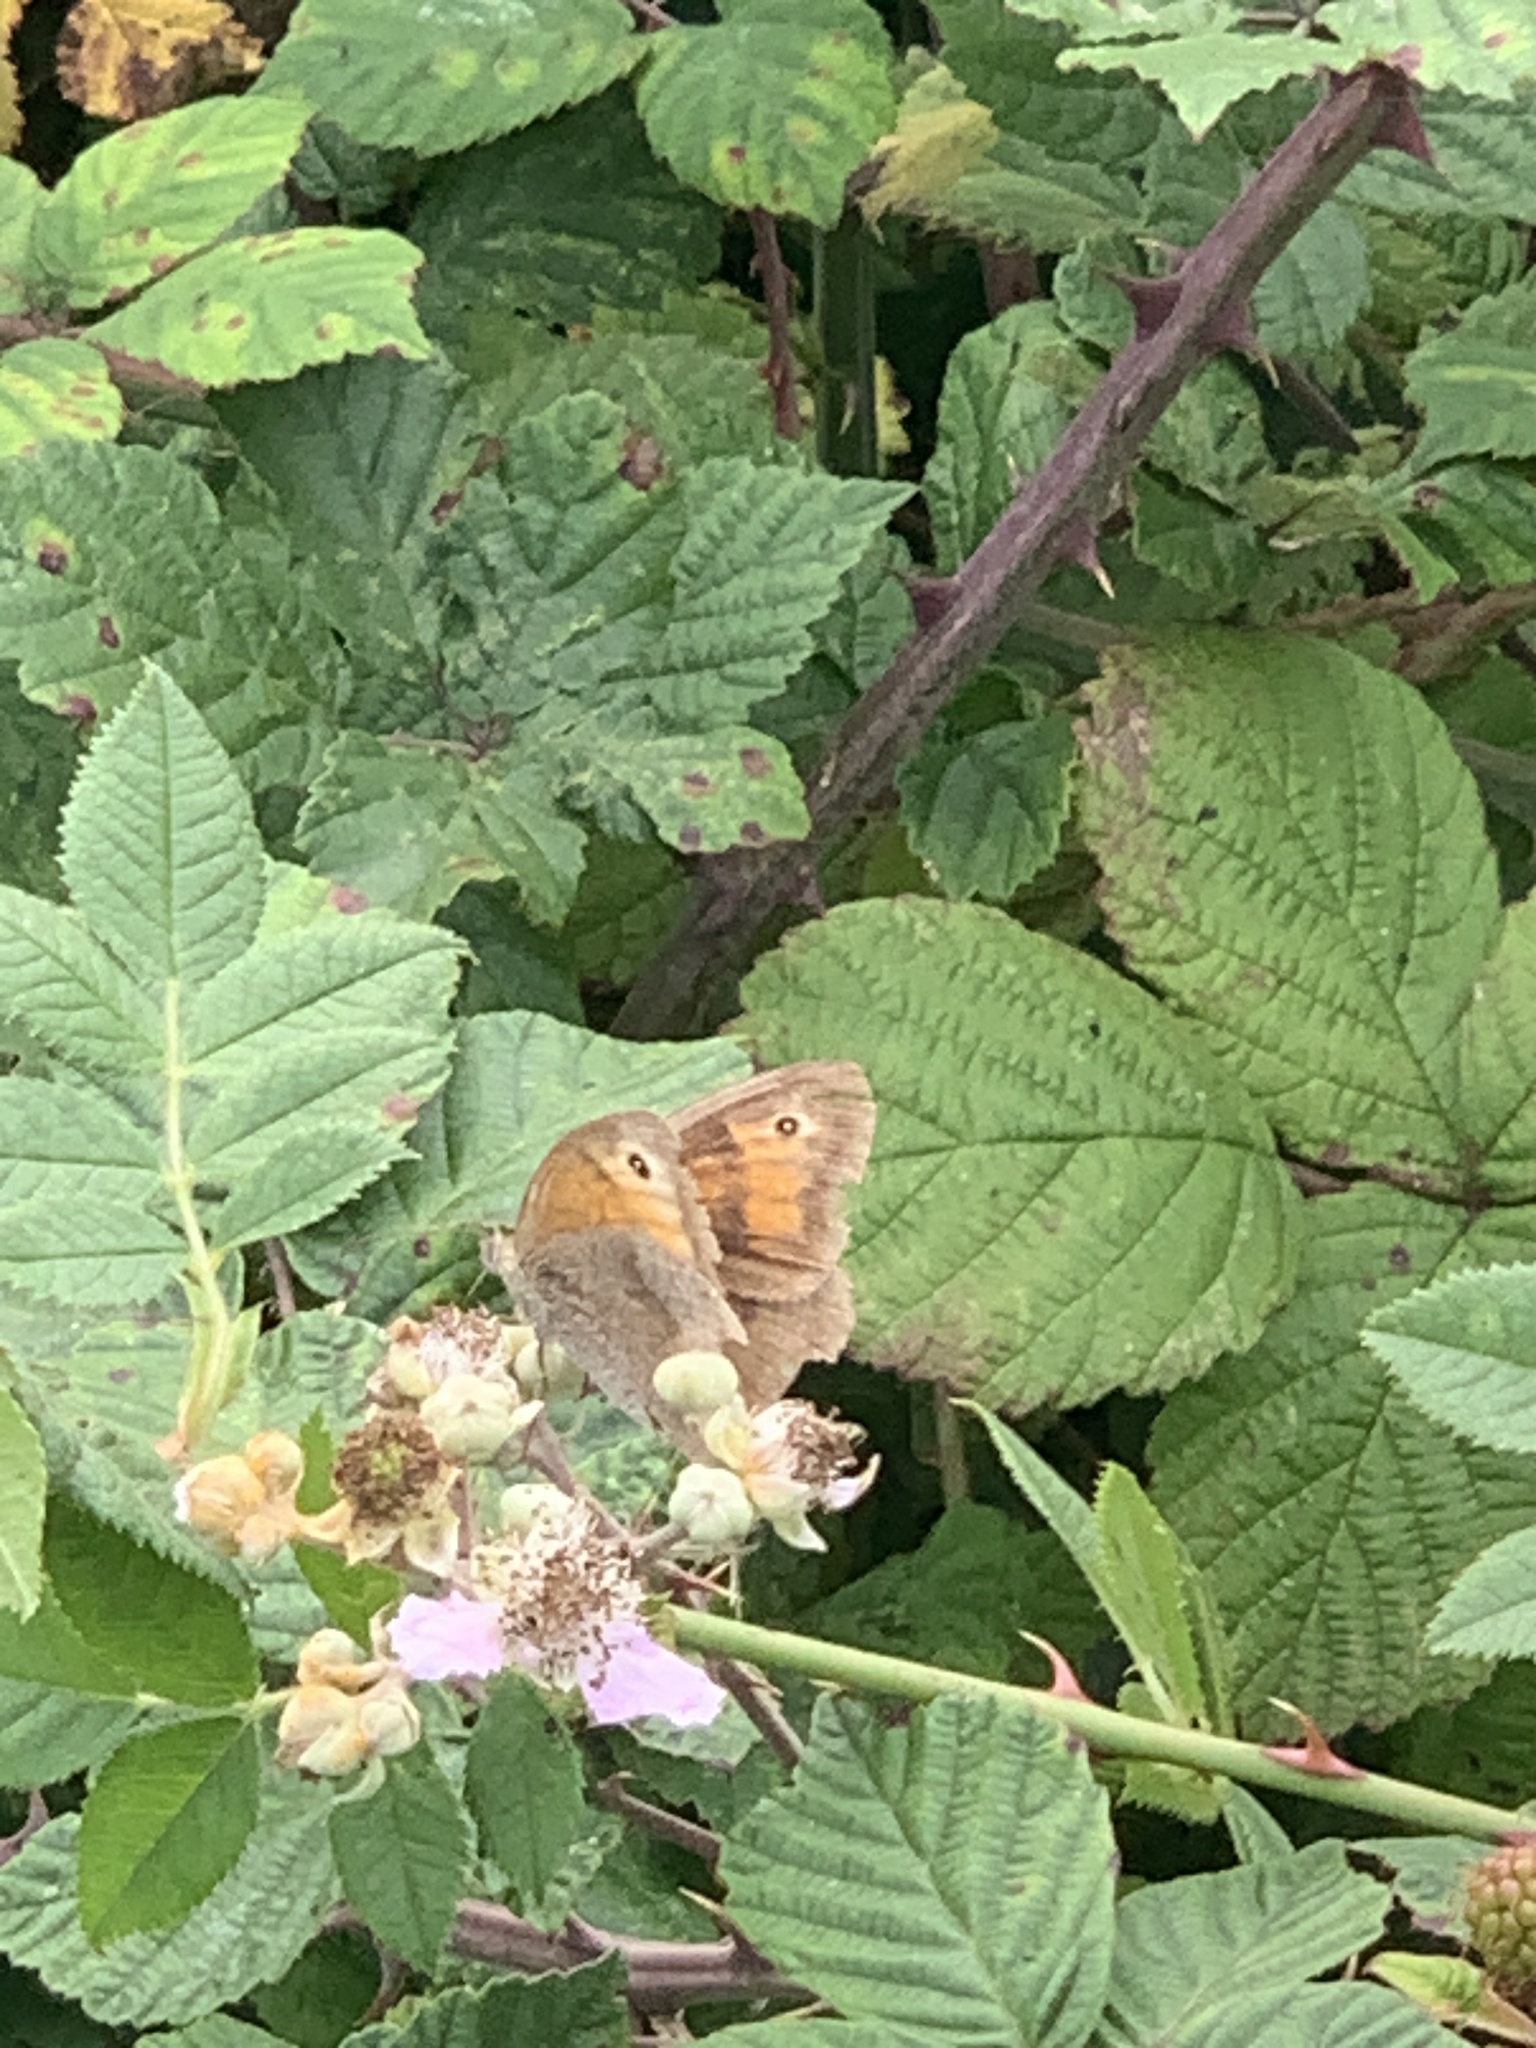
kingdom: Animalia
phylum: Arthropoda
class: Insecta
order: Lepidoptera
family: Nymphalidae
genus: Maniola
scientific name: Maniola jurtina
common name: Meadow brown
